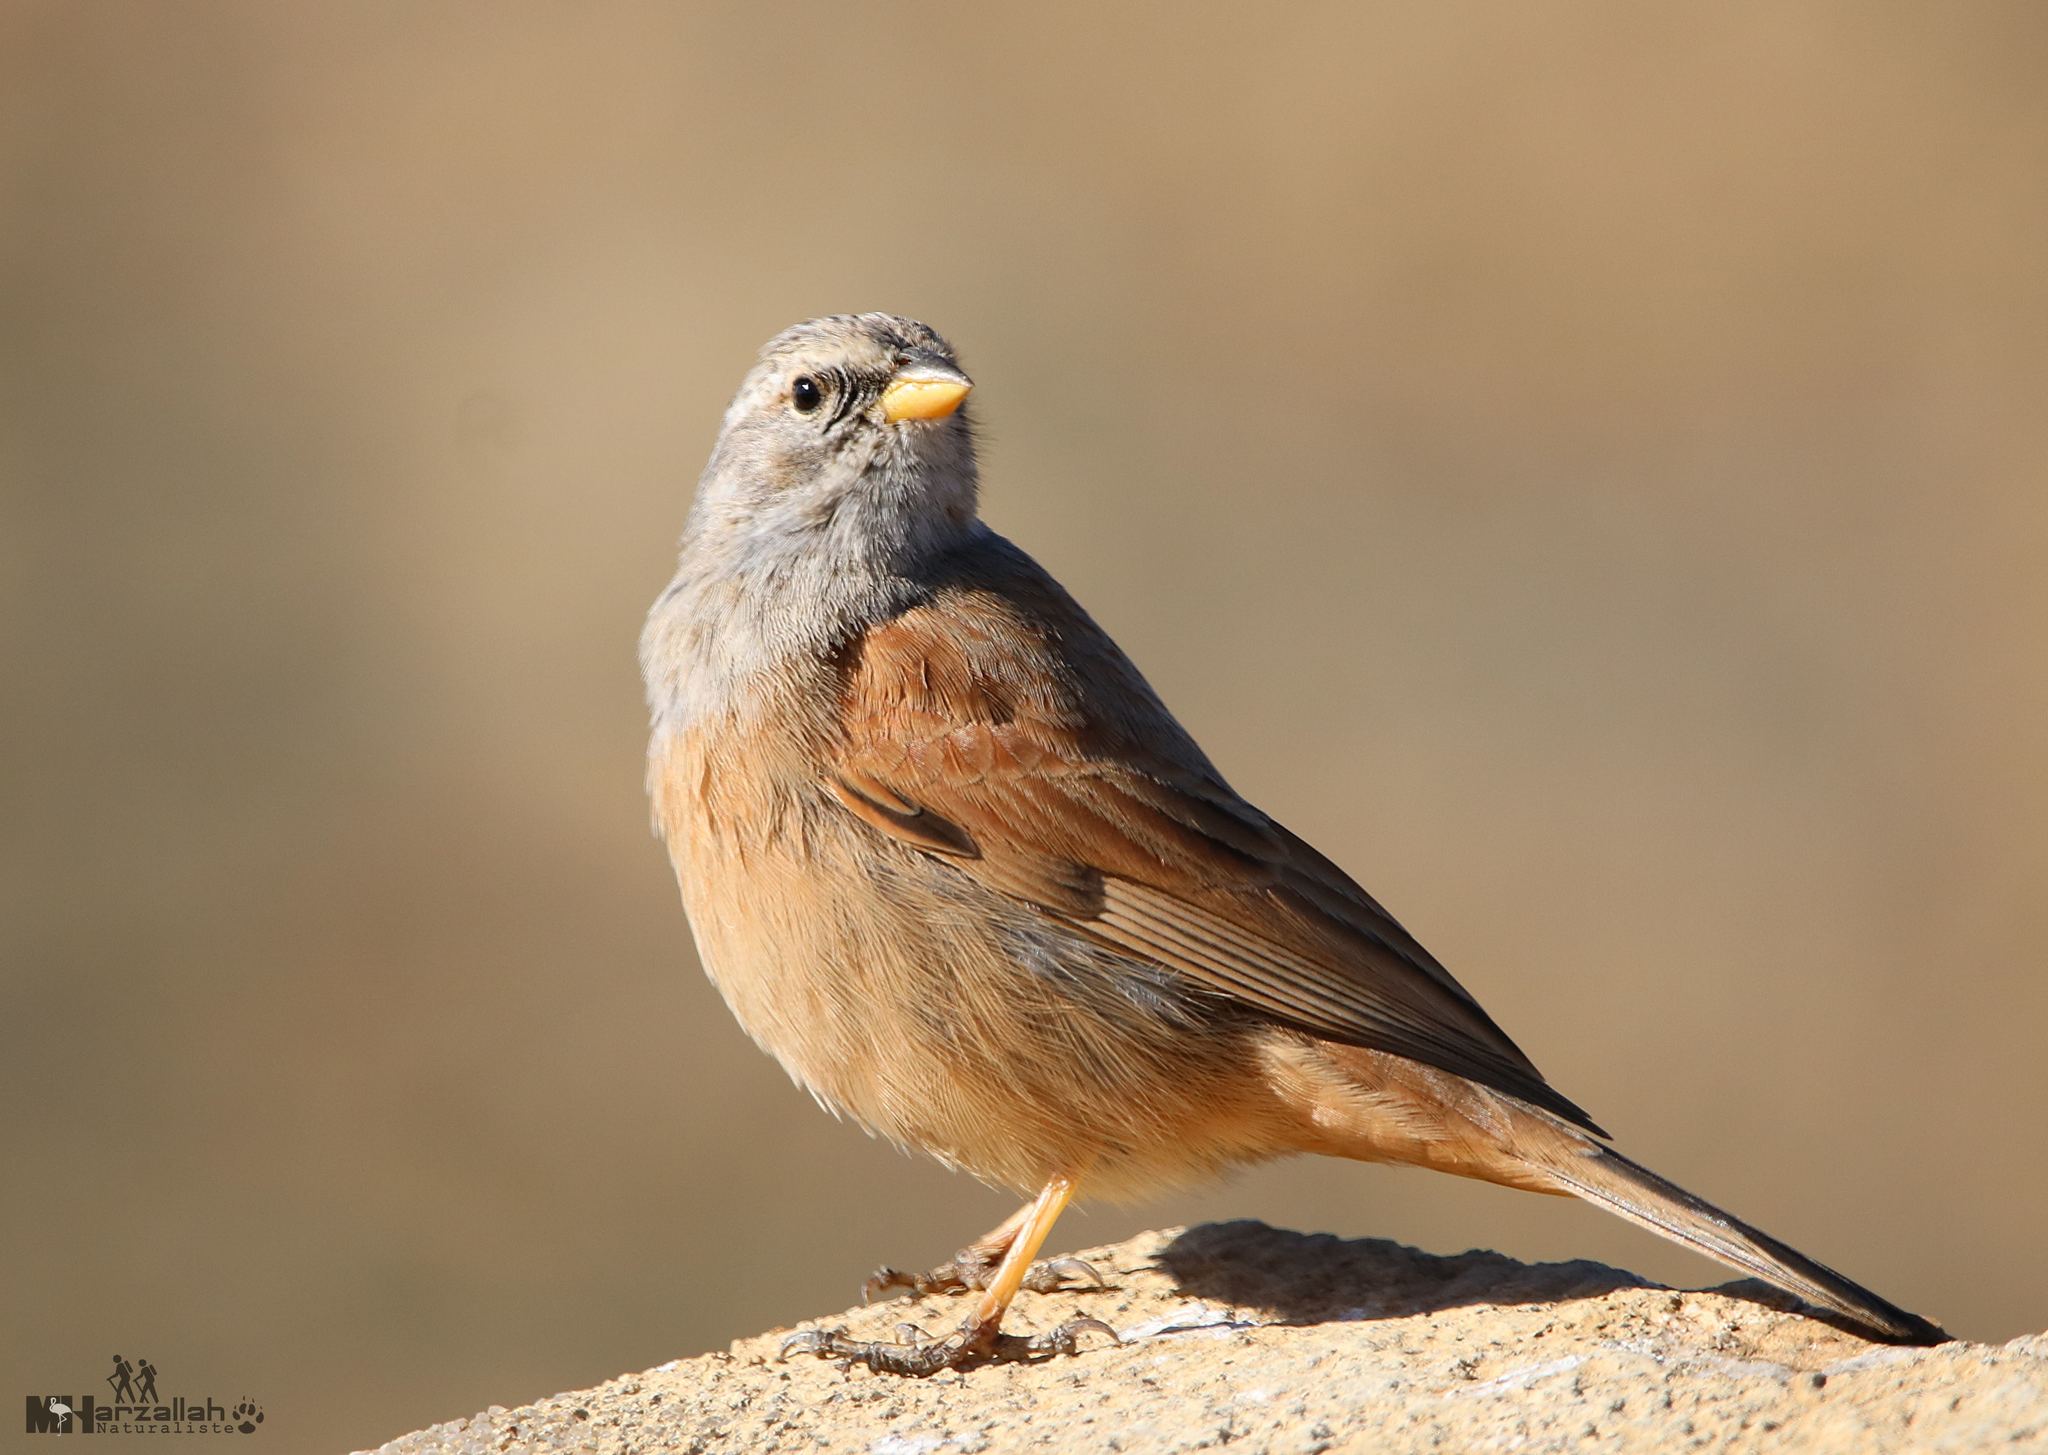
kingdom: Animalia
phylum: Chordata
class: Aves
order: Passeriformes
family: Emberizidae
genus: Emberiza
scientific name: Emberiza sahari
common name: House bunting
